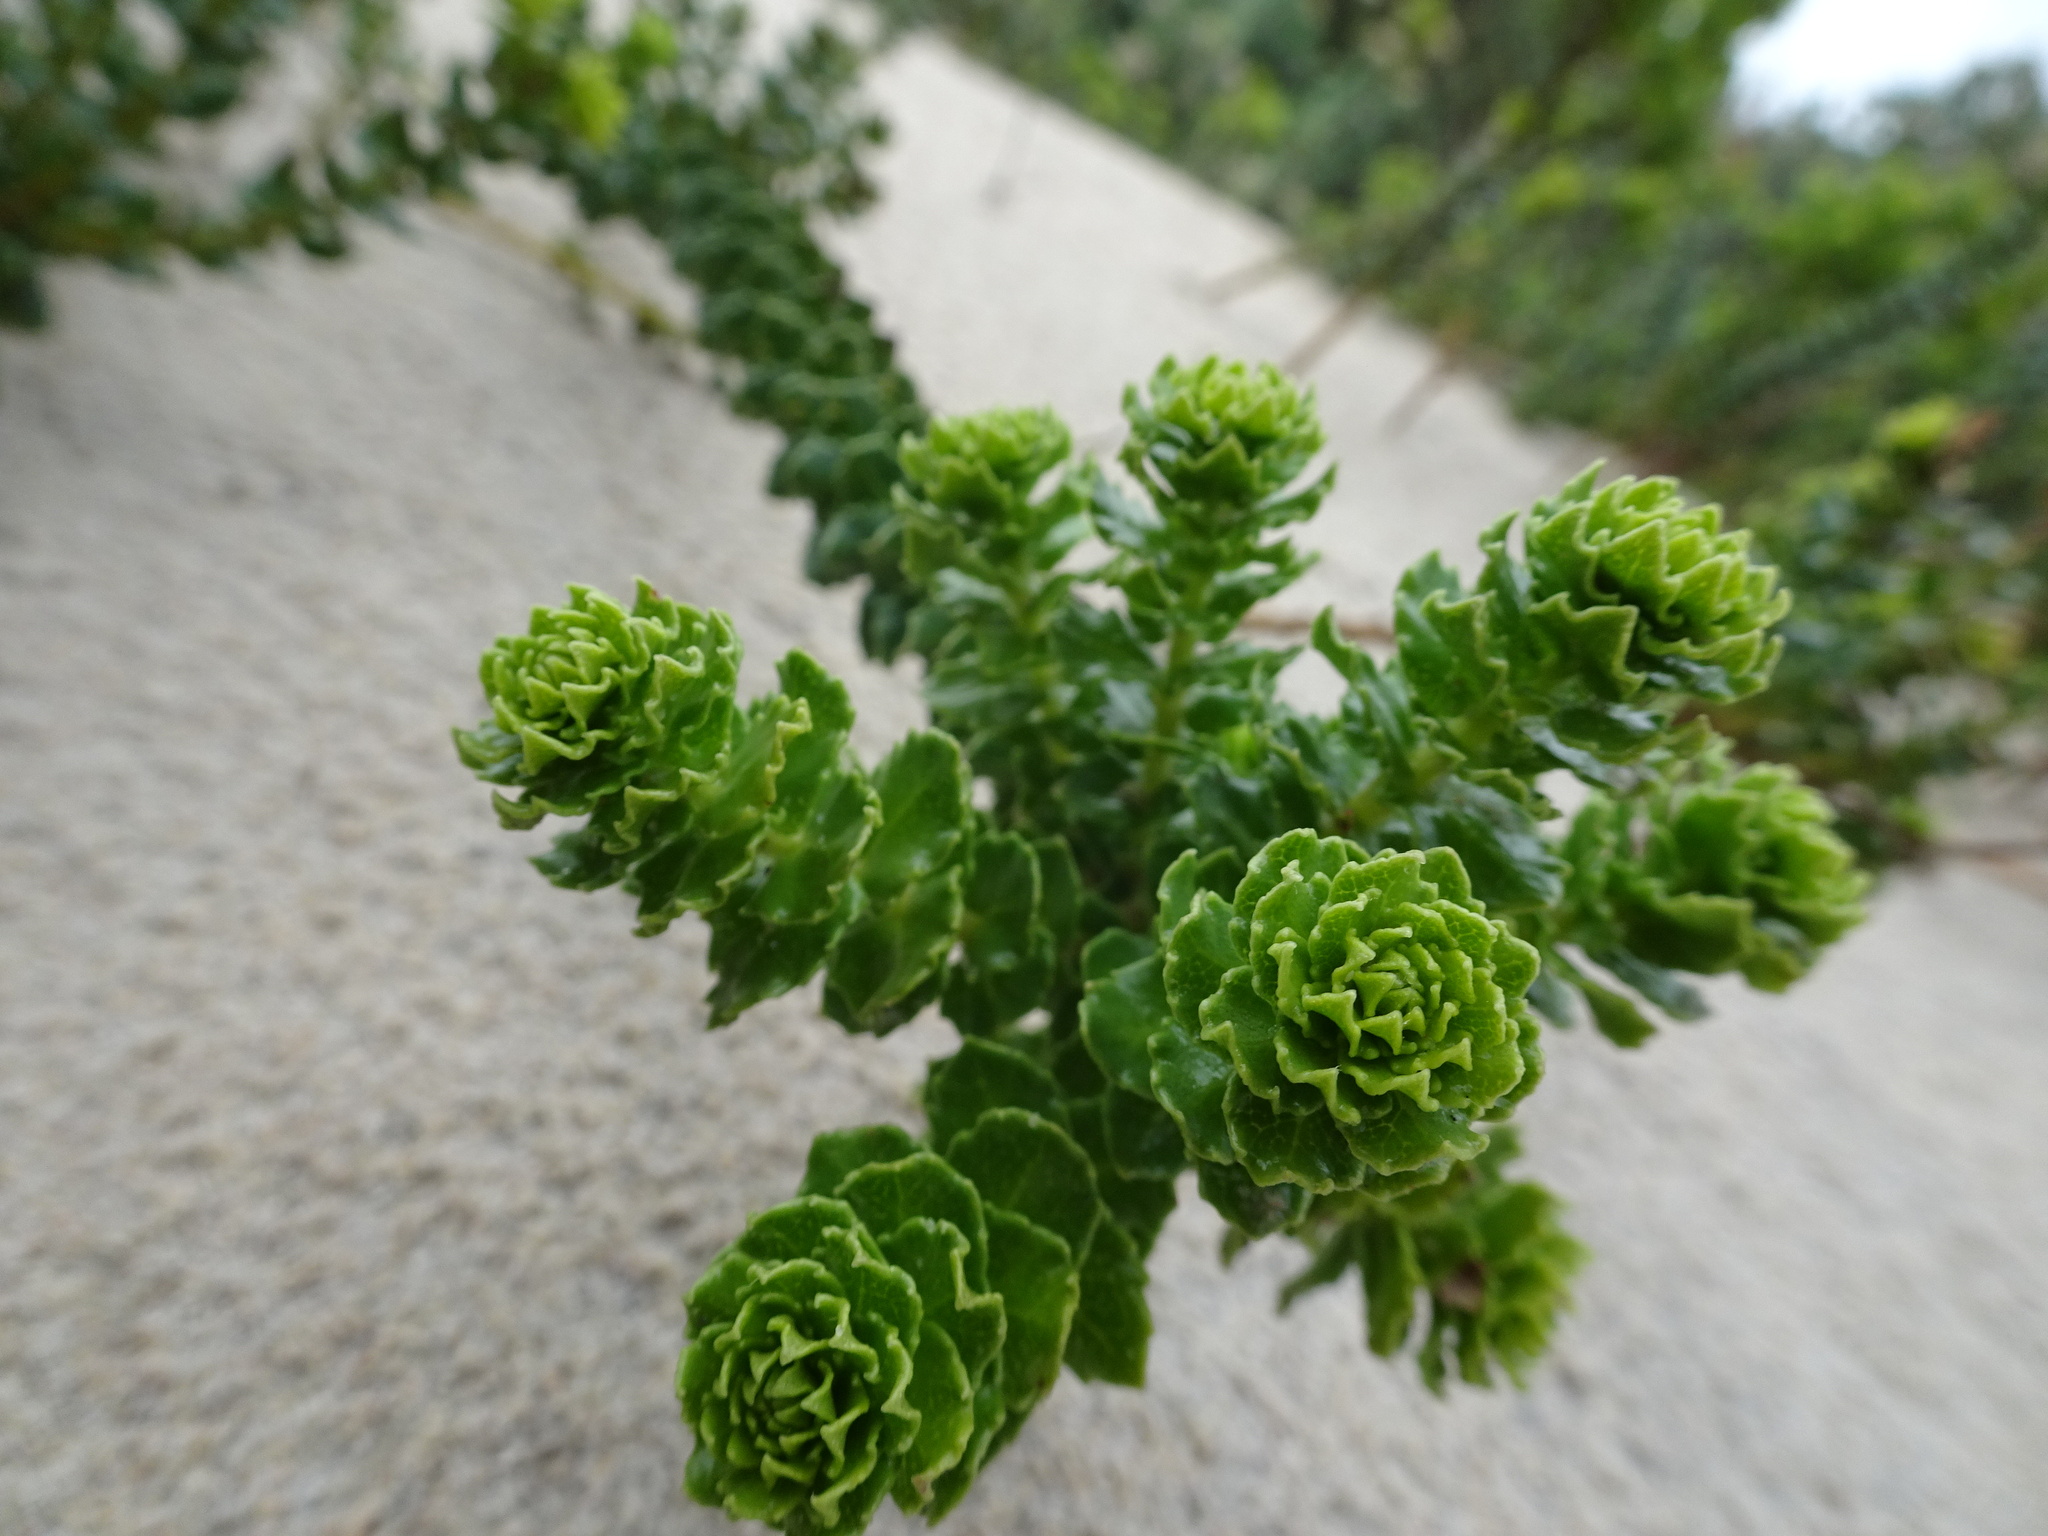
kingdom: Plantae
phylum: Tracheophyta
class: Magnoliopsida
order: Fagales
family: Myricaceae
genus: Morella
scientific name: Morella cordifolia
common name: Waxberry
